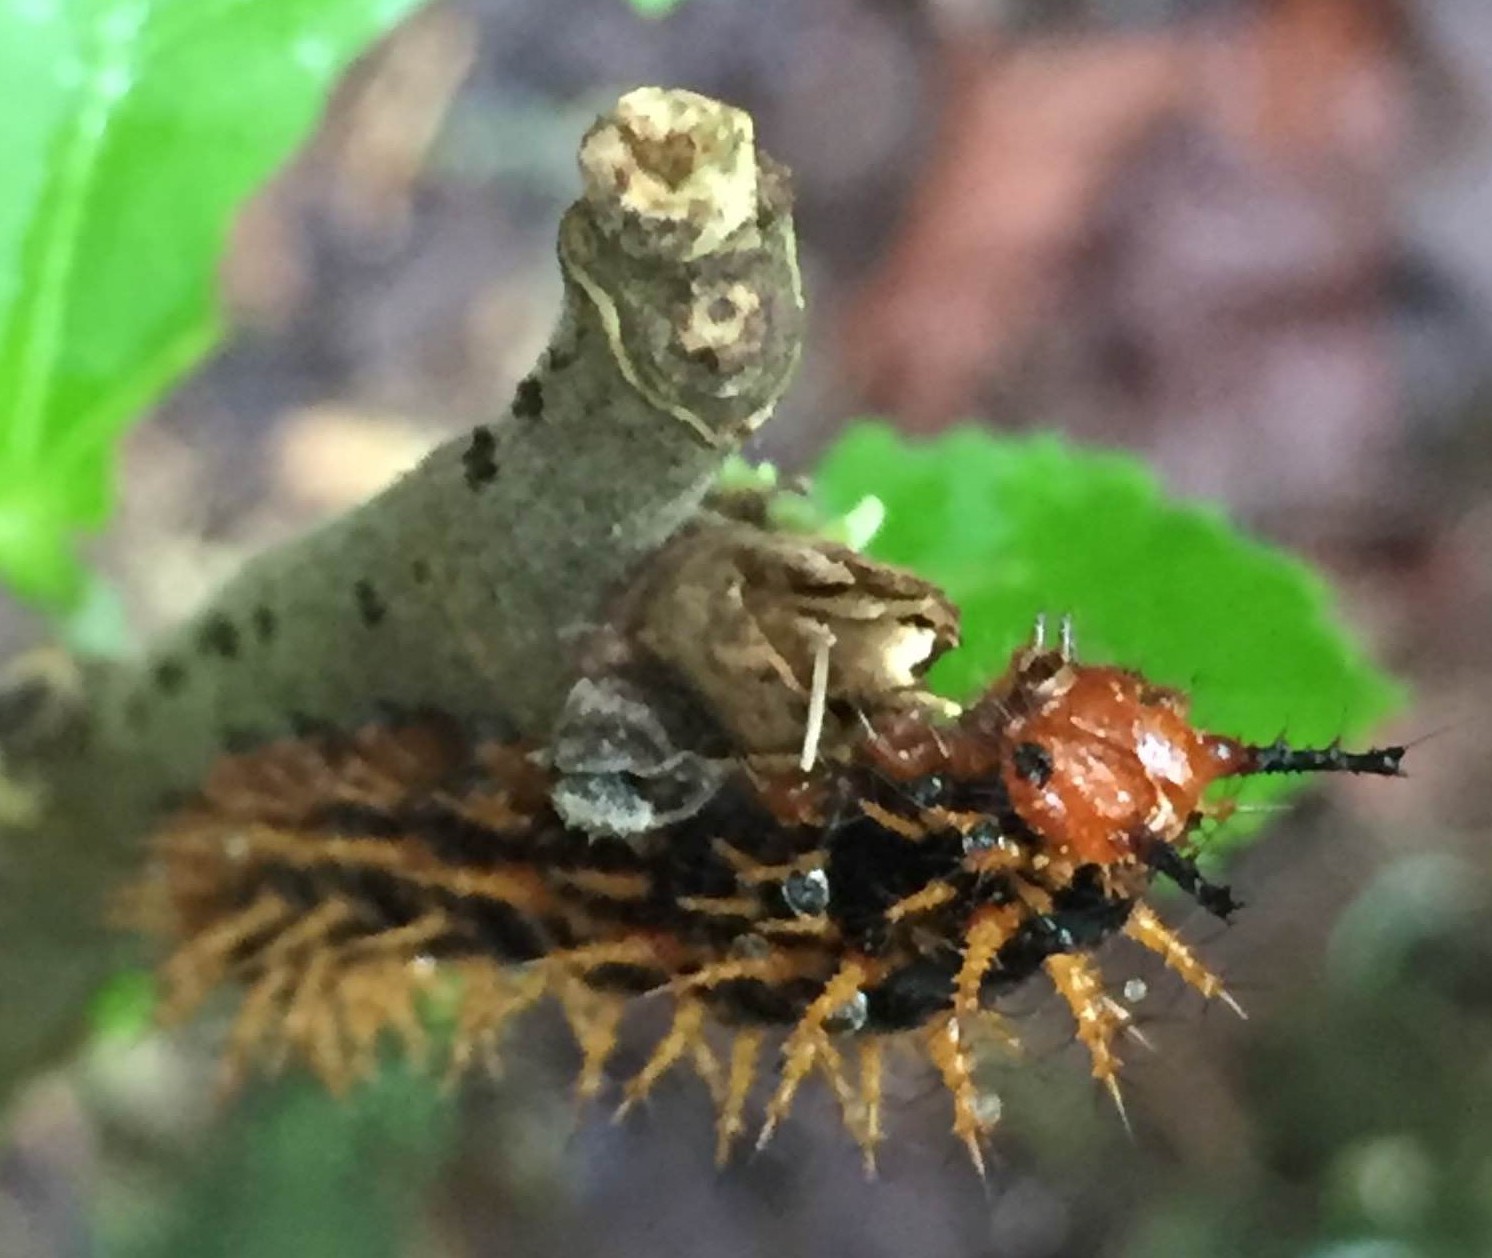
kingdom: Animalia
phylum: Arthropoda
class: Insecta
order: Lepidoptera
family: Nymphalidae
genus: Hypolimnas
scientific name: Hypolimnas bolina
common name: Great eggfly
